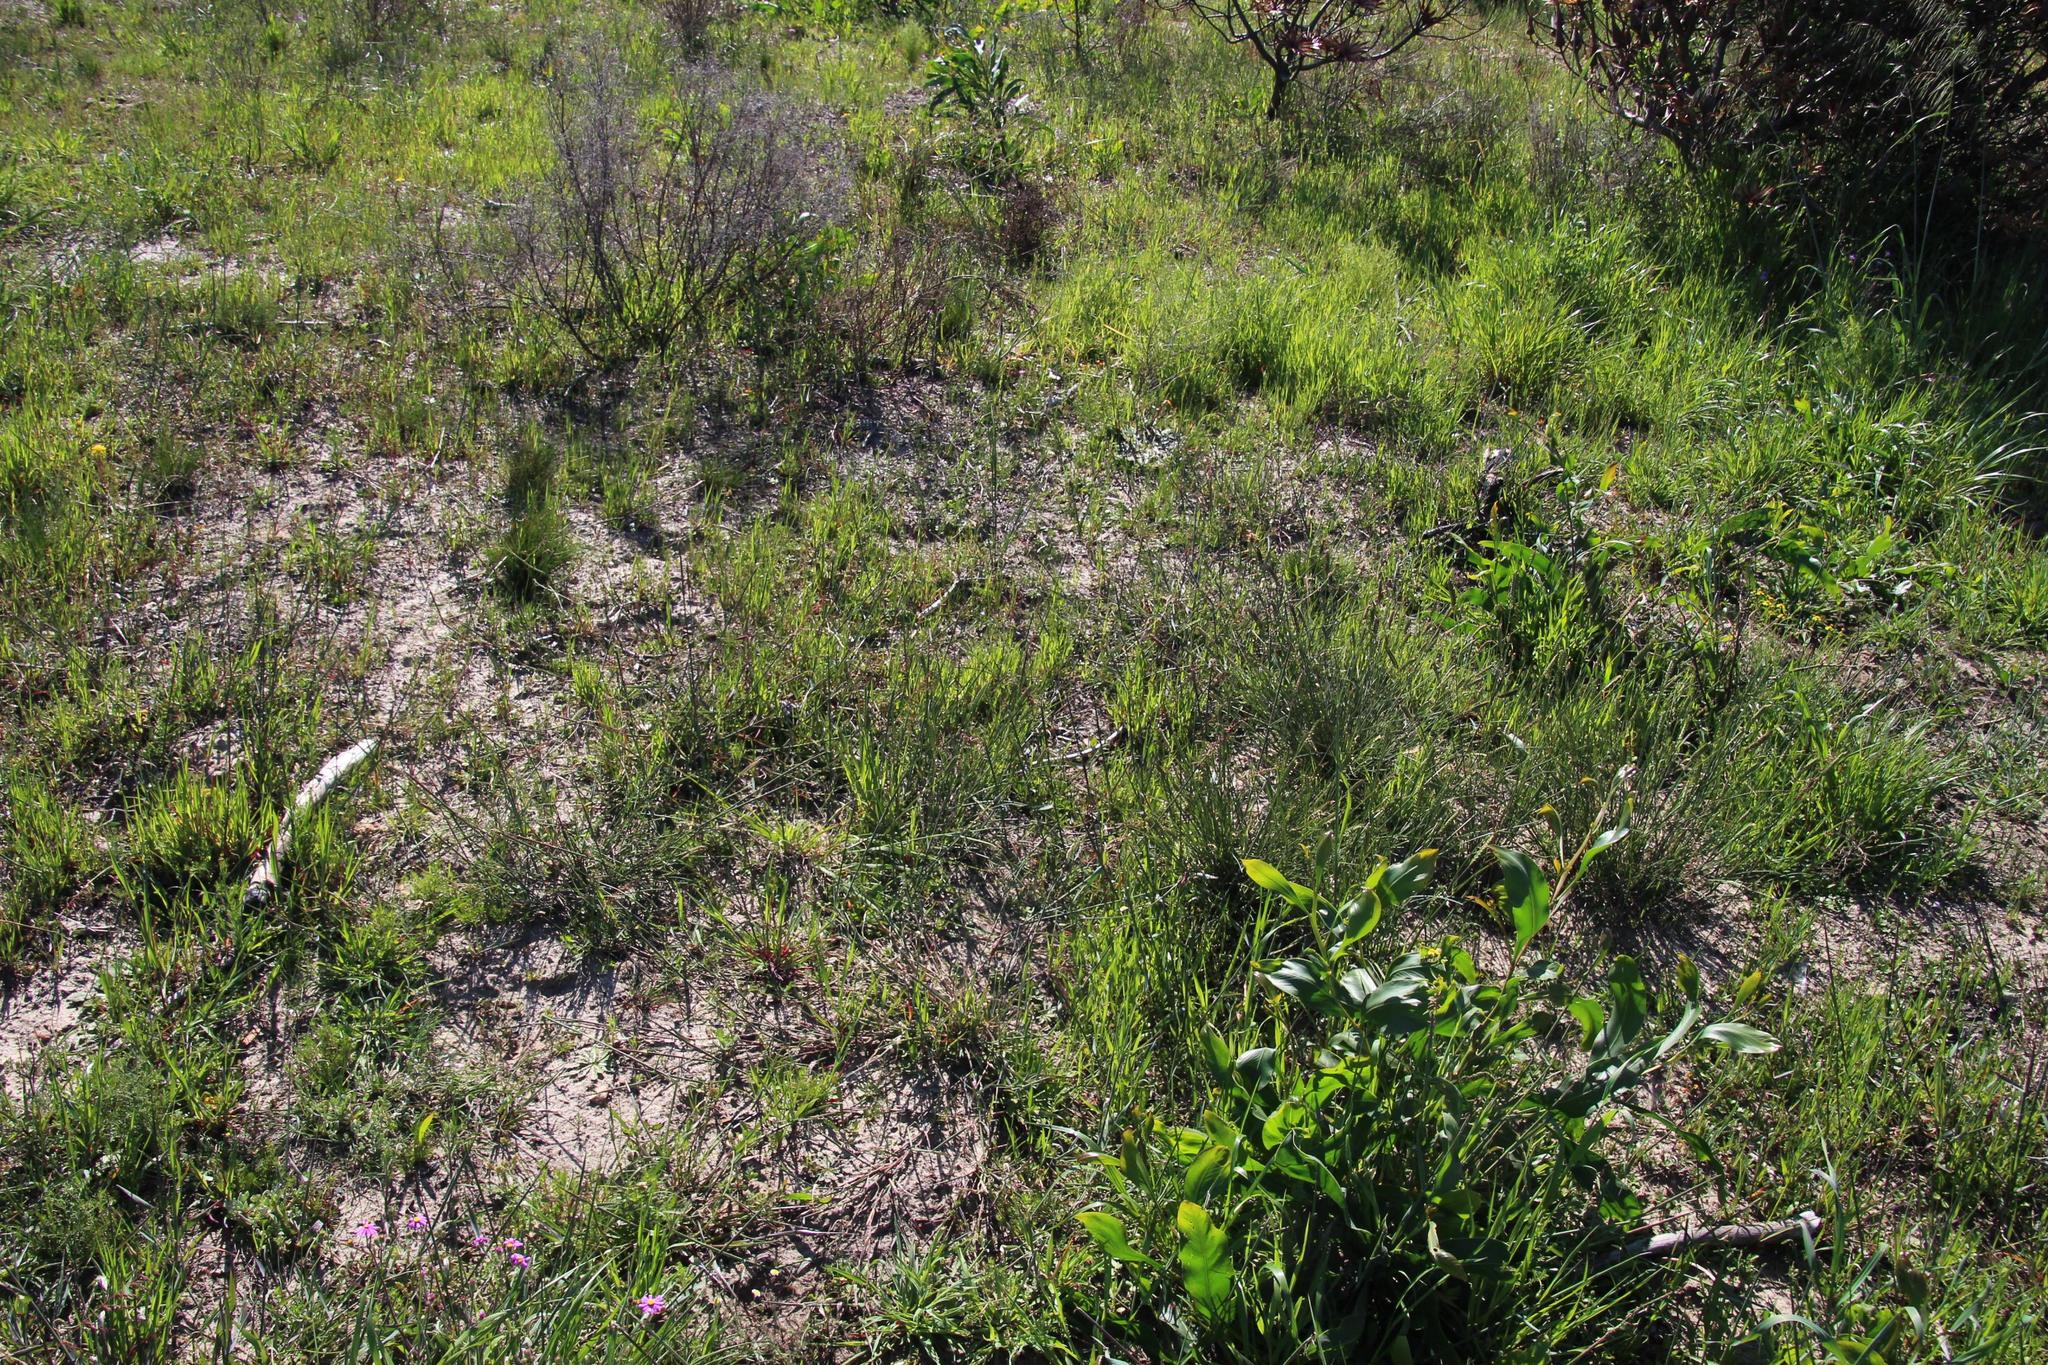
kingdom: Plantae
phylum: Tracheophyta
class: Liliopsida
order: Poales
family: Poaceae
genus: Ehrharta
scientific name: Ehrharta calycina
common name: Perennial veldtgrass
